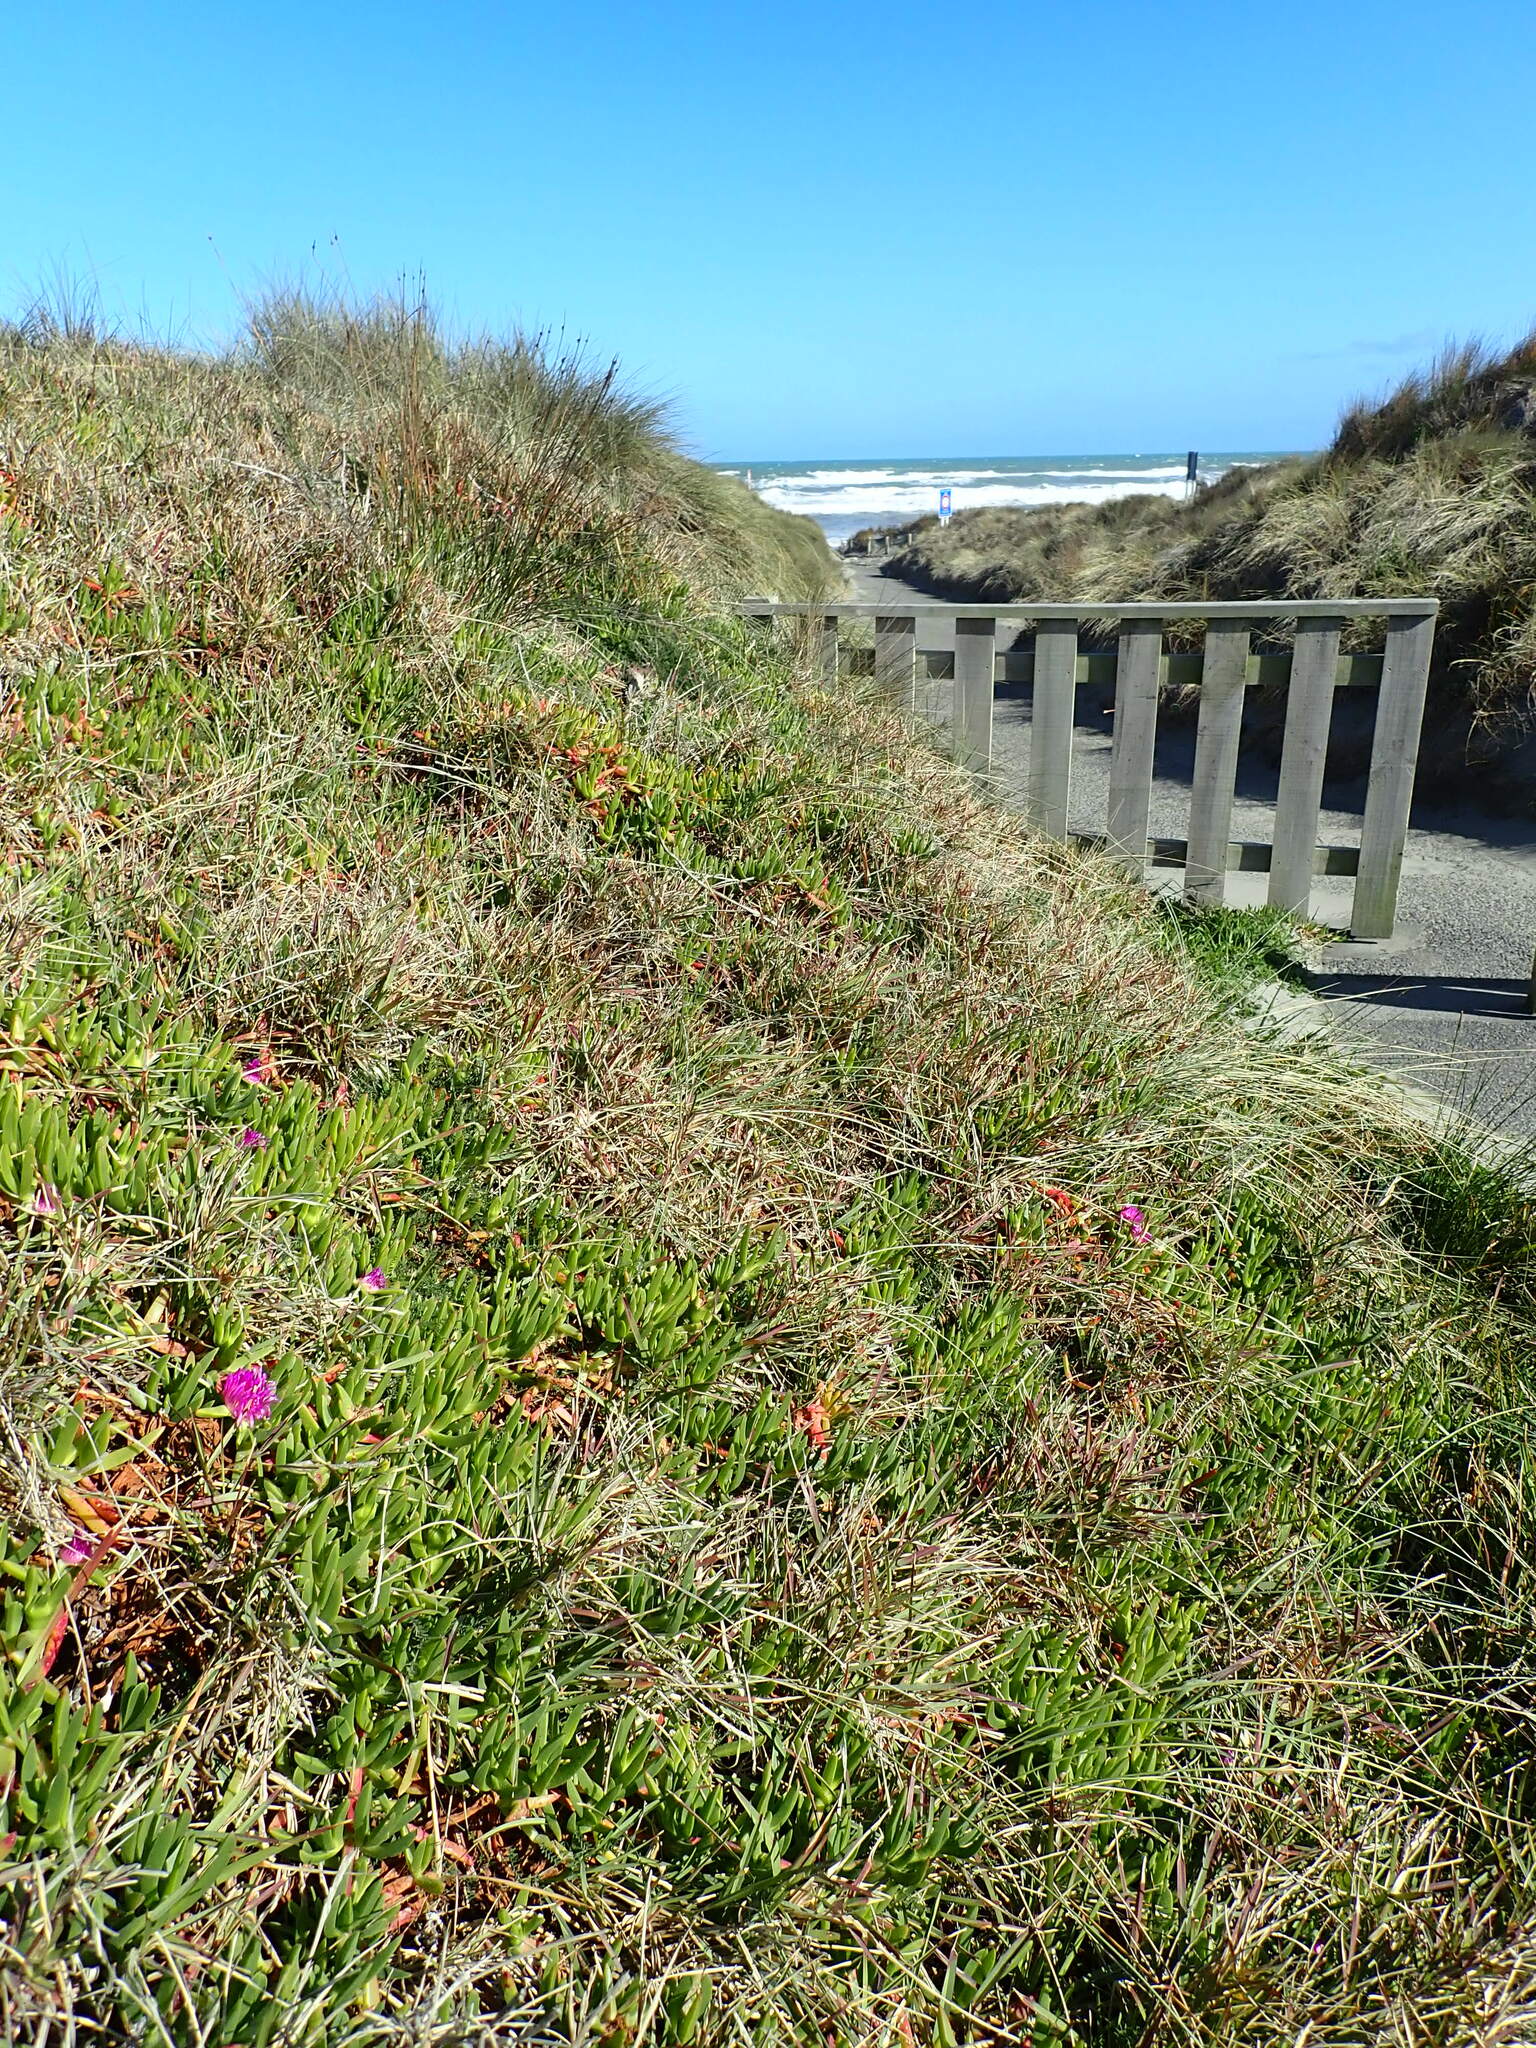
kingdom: Plantae
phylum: Tracheophyta
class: Magnoliopsida
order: Caryophyllales
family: Aizoaceae
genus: Carpobrotus
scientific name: Carpobrotus chilensis
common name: Sea fig
